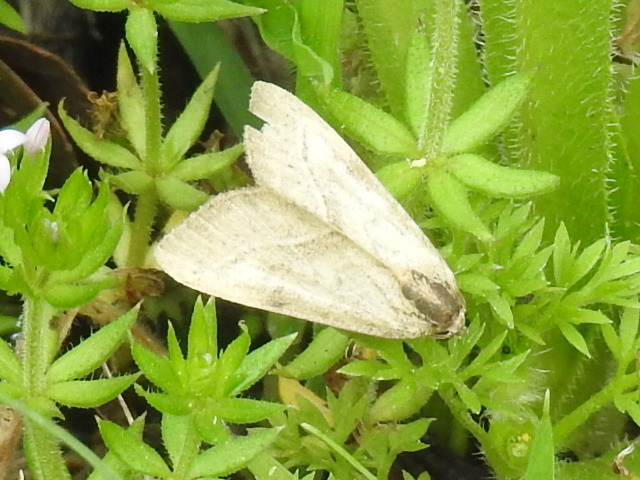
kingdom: Animalia
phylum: Arthropoda
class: Insecta
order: Lepidoptera
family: Noctuidae
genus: Galgula
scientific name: Galgula partita
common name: Wedgeling
